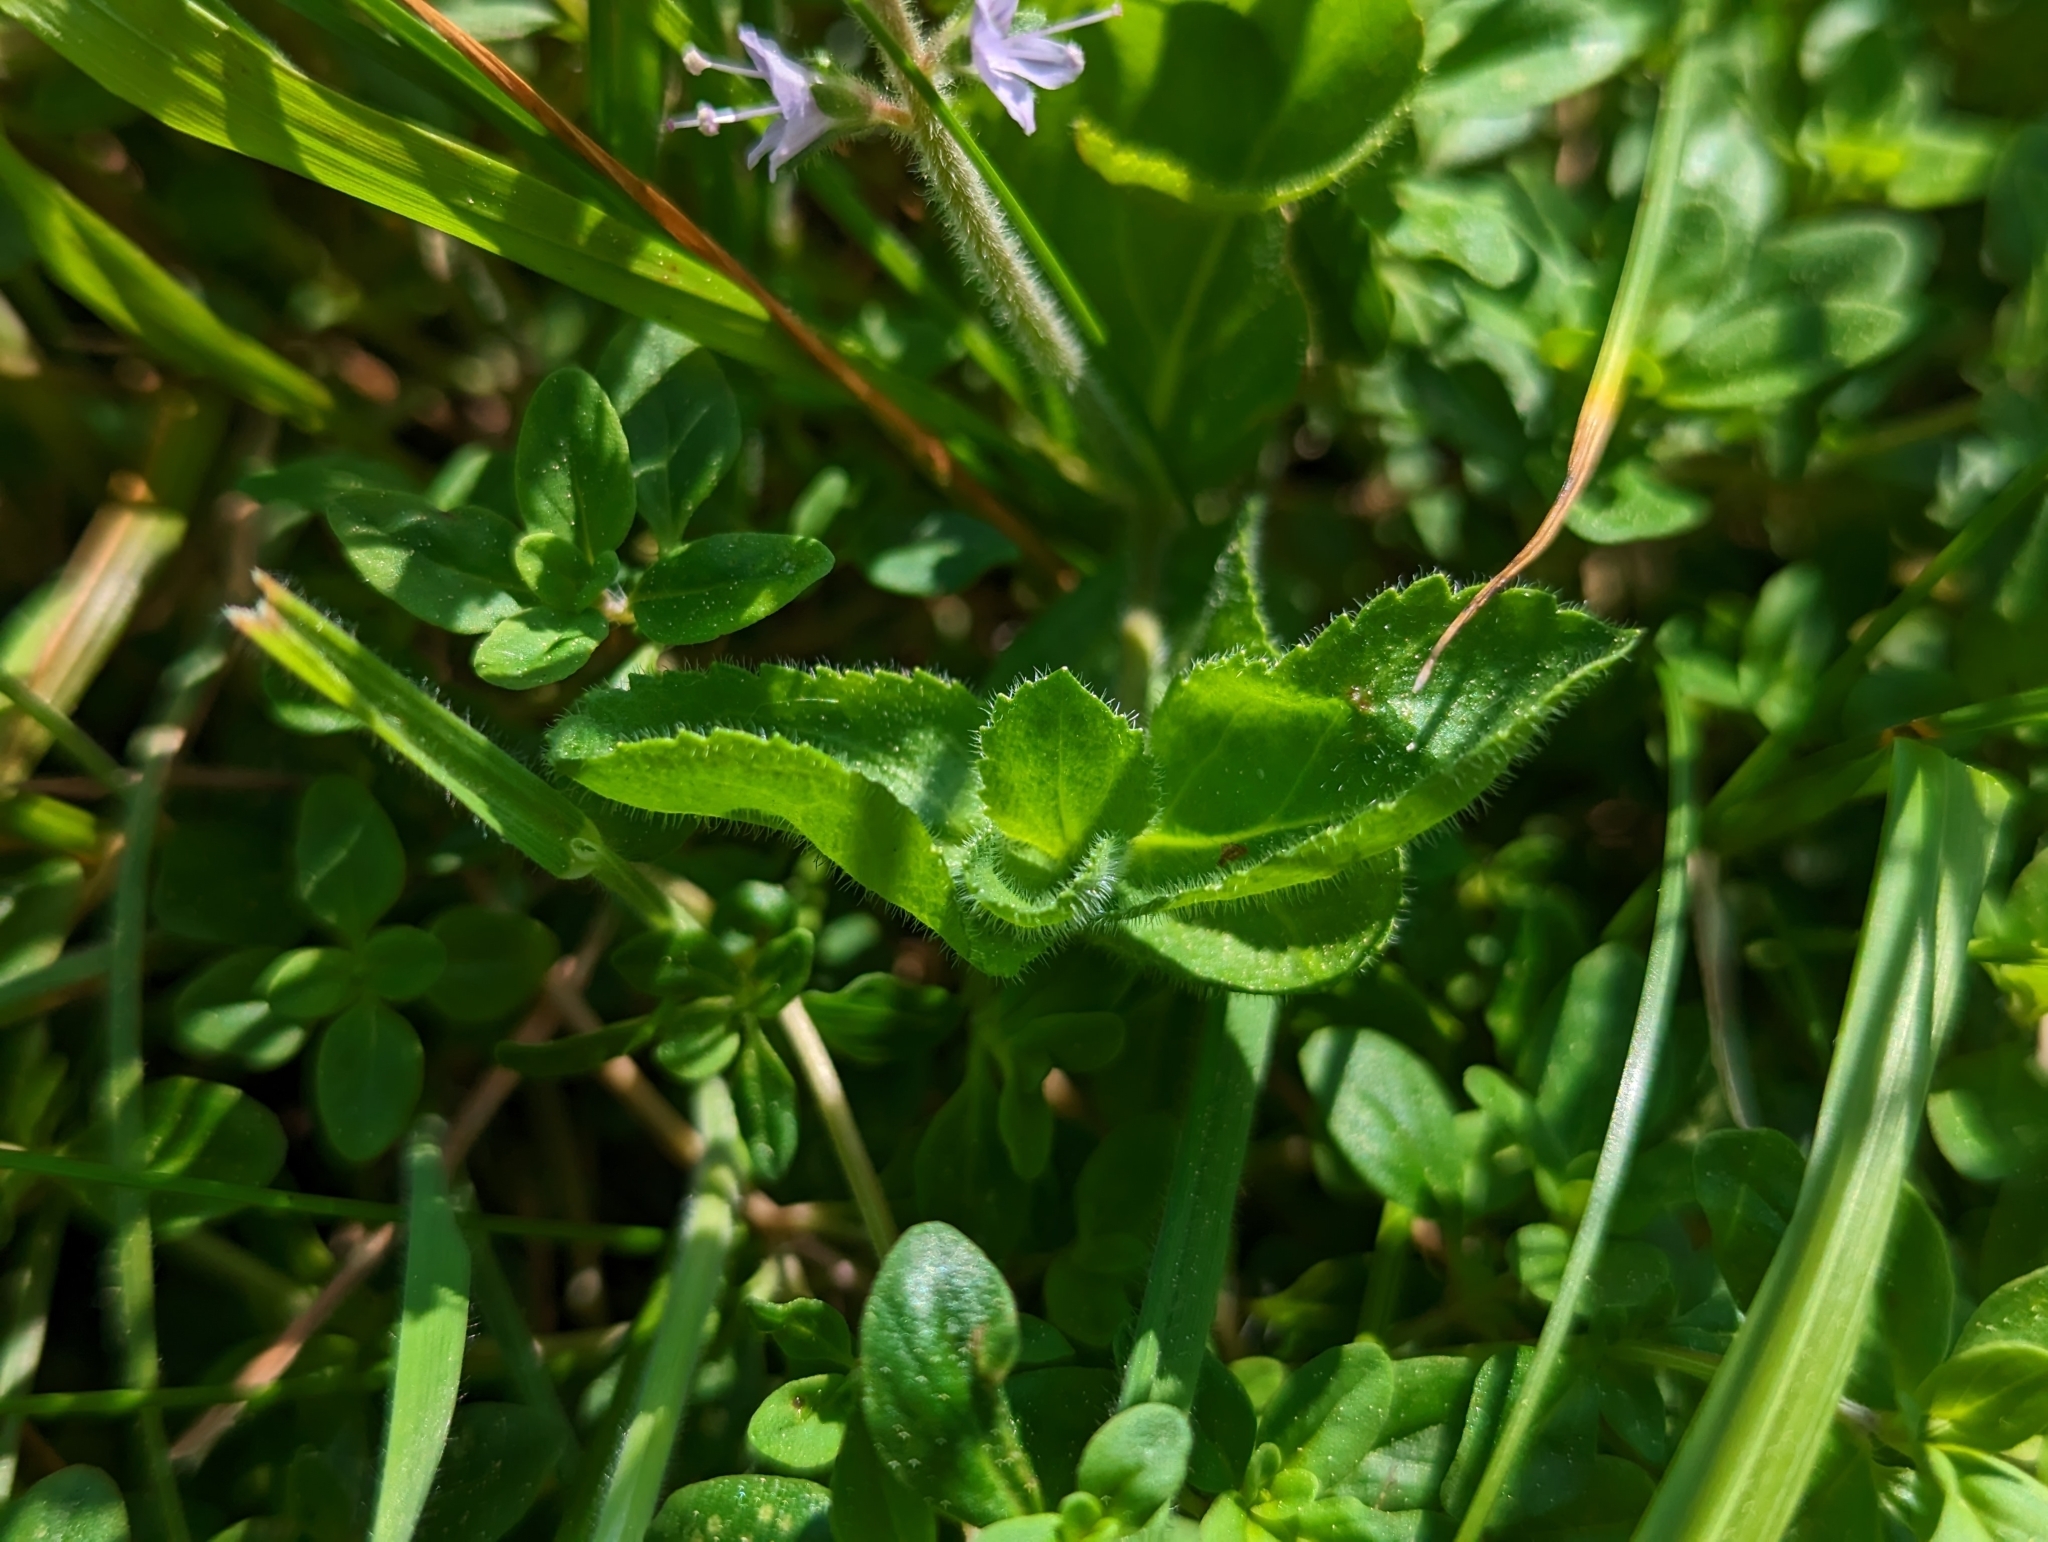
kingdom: Plantae
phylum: Tracheophyta
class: Magnoliopsida
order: Lamiales
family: Plantaginaceae
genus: Veronica
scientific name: Veronica officinalis
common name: Common speedwell
